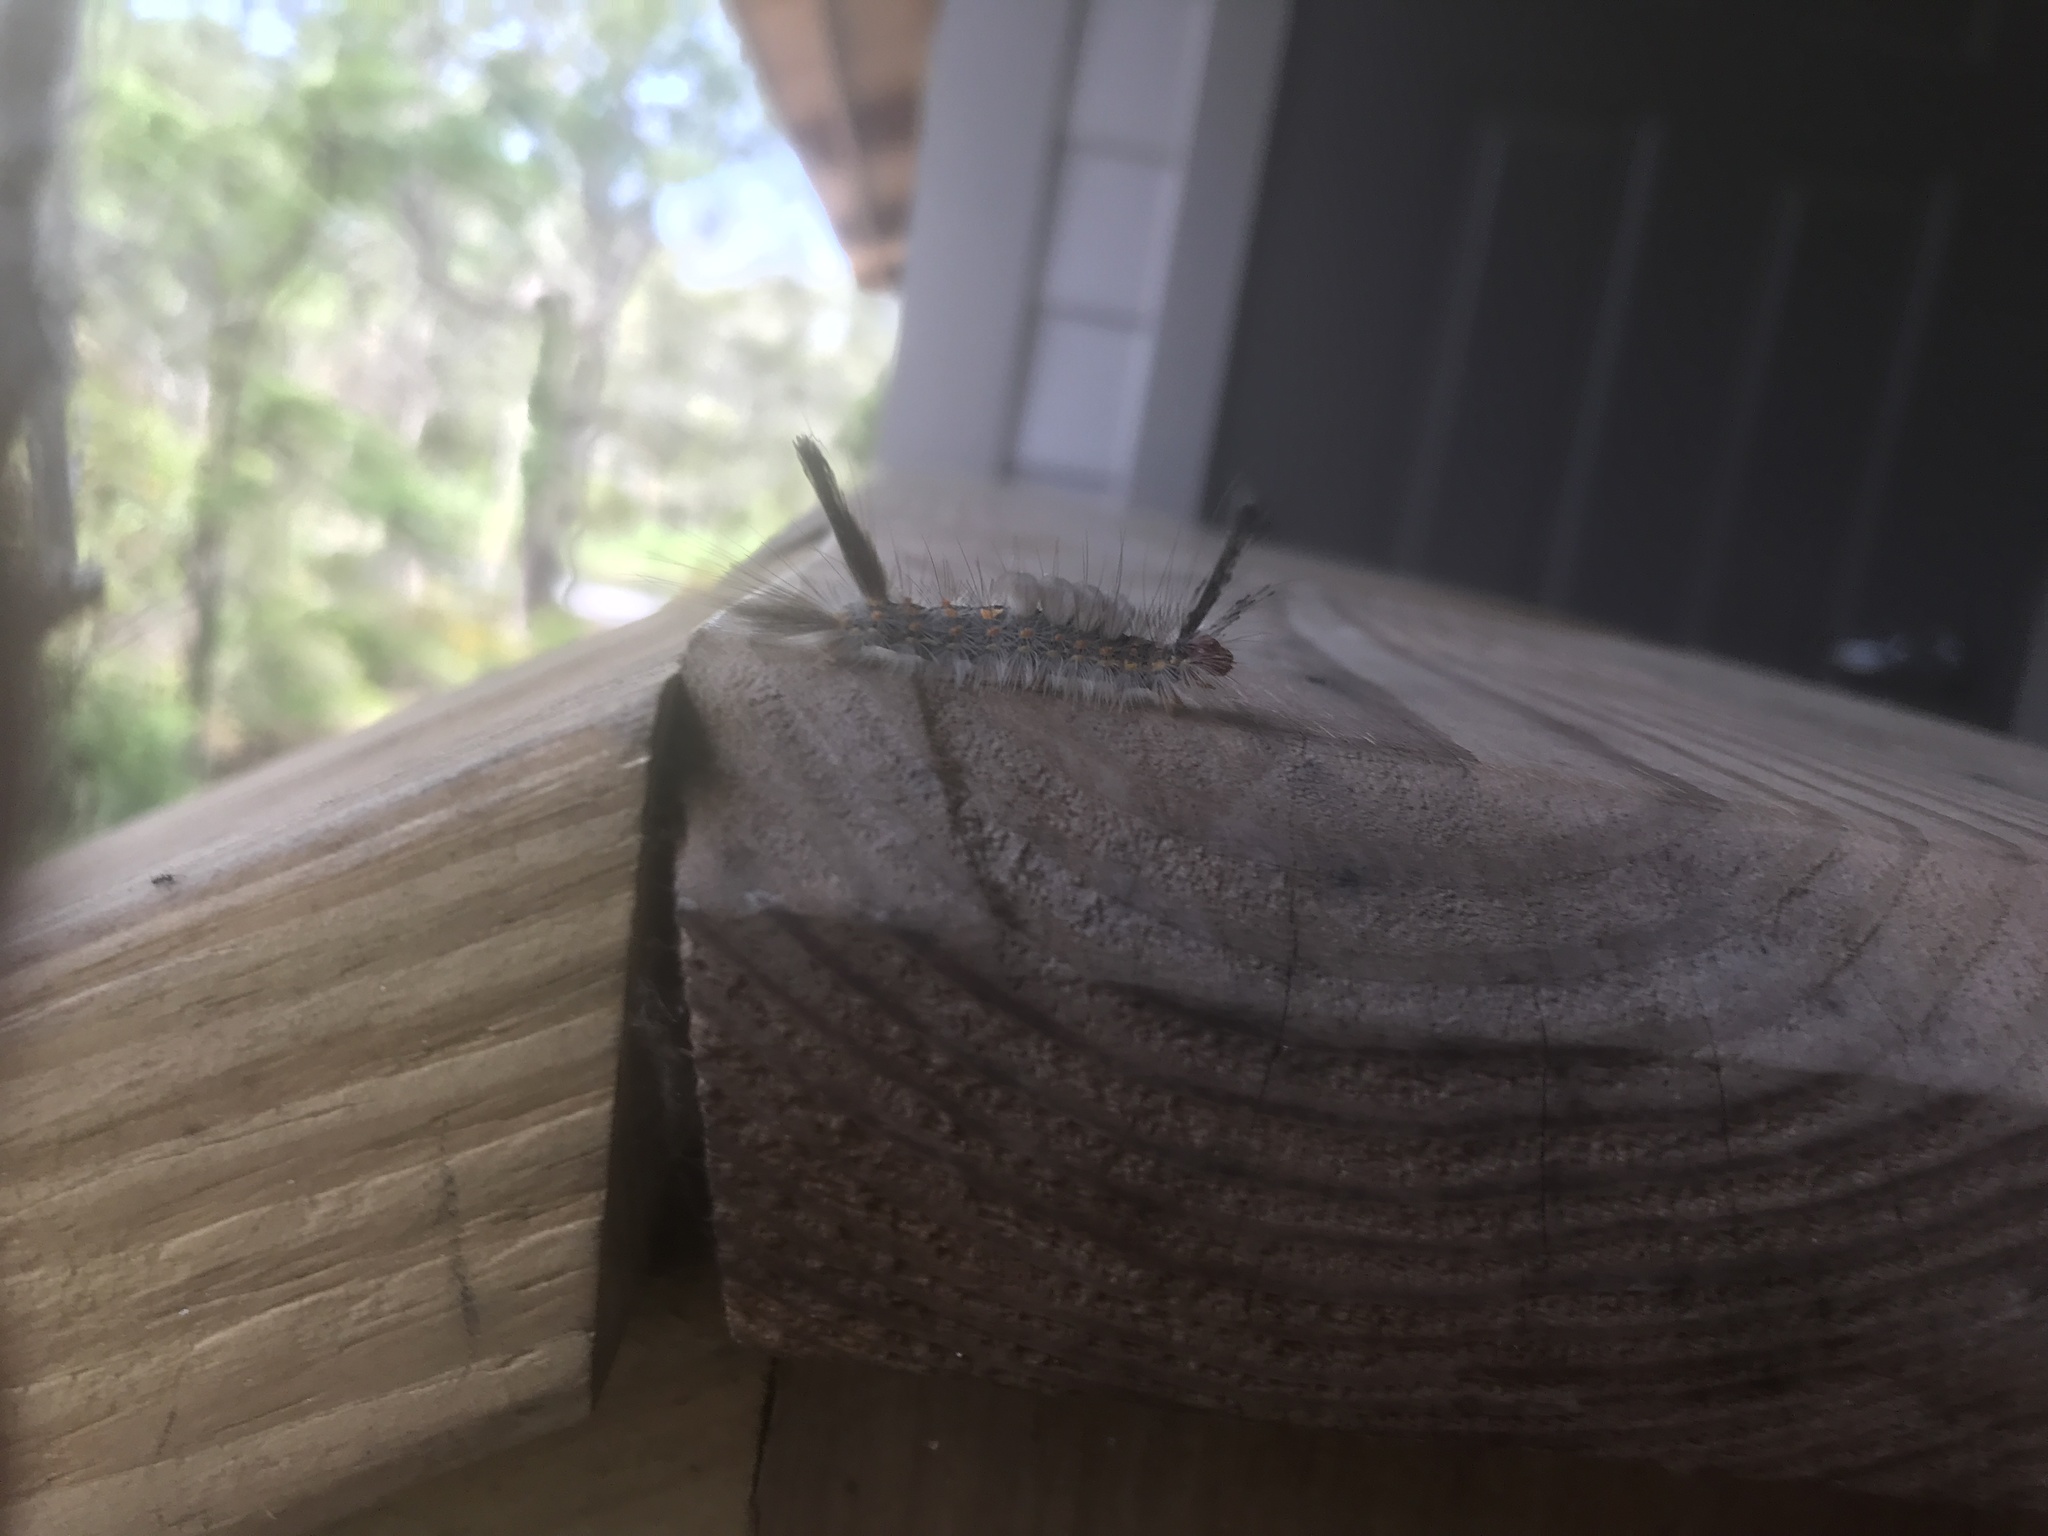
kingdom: Animalia
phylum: Arthropoda
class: Insecta
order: Lepidoptera
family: Erebidae
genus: Orgyia
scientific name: Orgyia detrita
